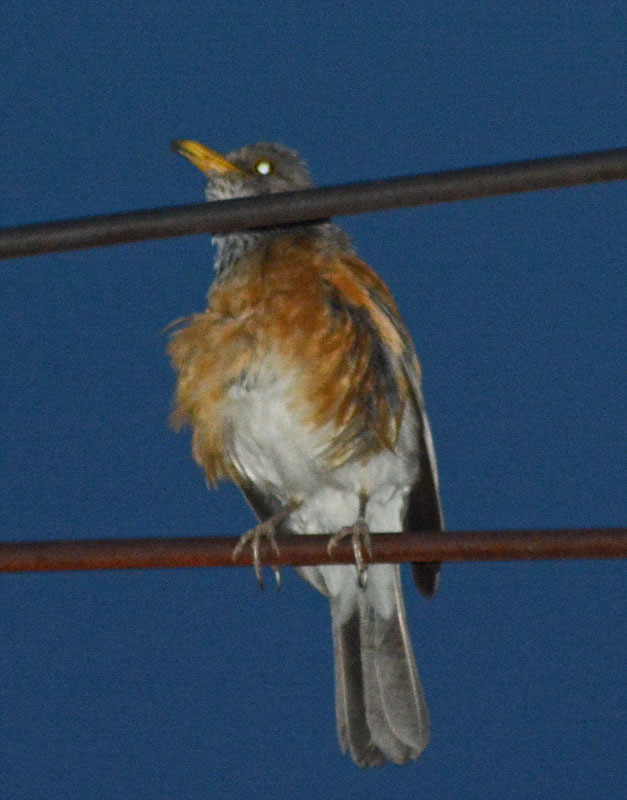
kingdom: Animalia
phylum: Chordata
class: Aves
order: Passeriformes
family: Turdidae
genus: Turdus
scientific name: Turdus rufopalliatus
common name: Rufous-backed robin
